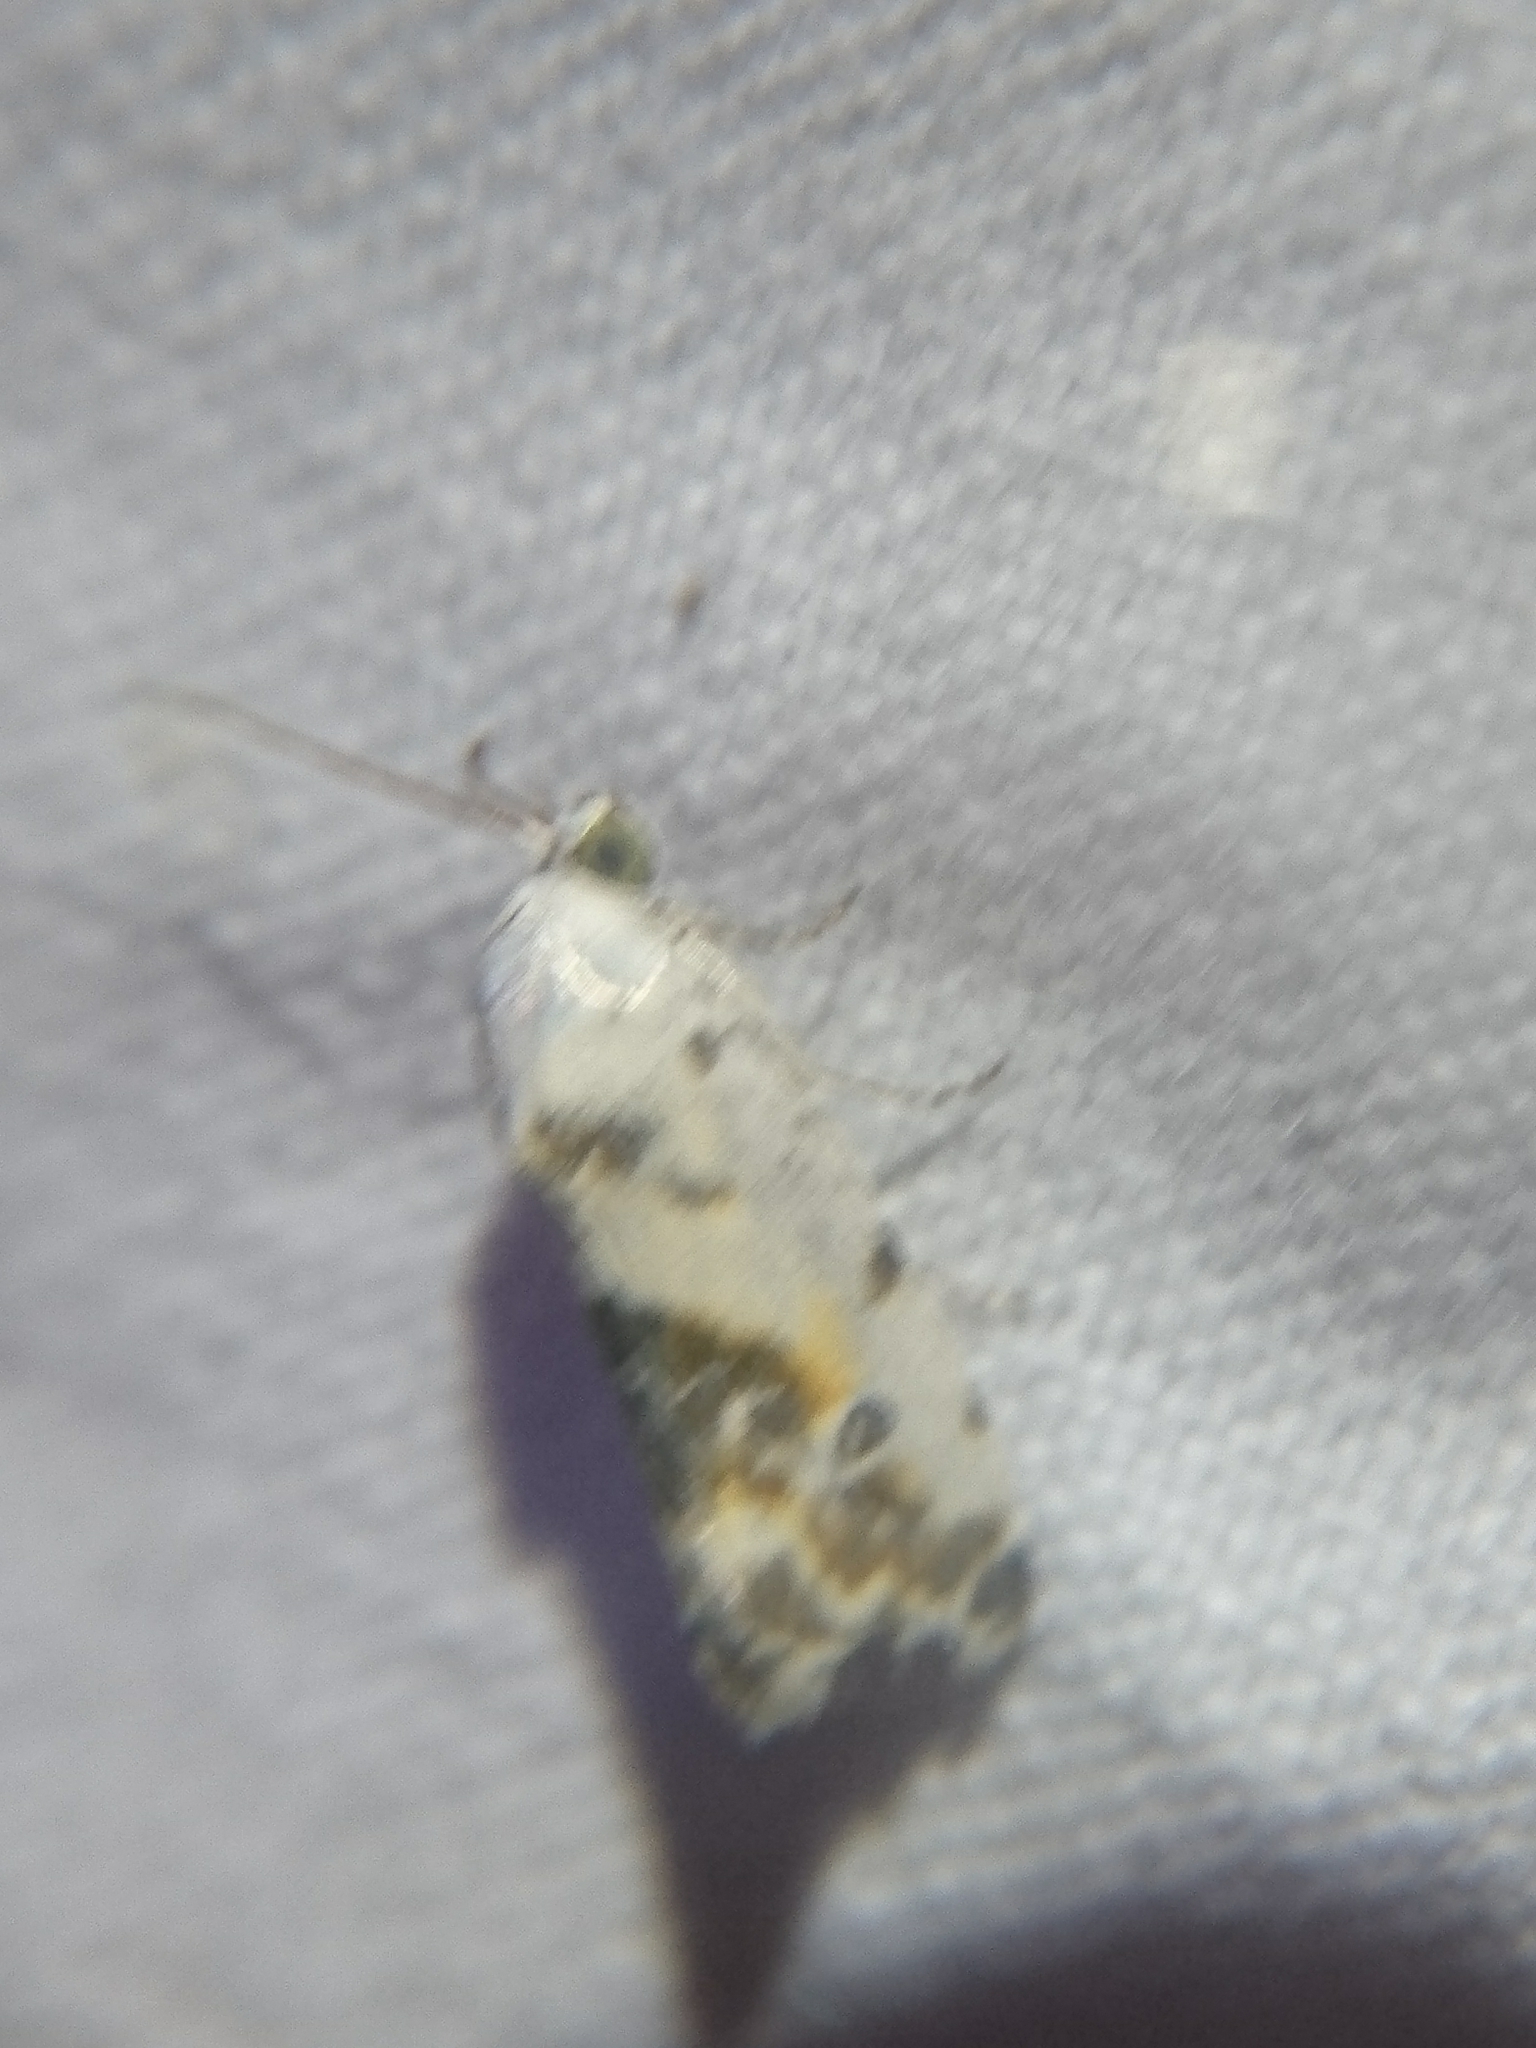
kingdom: Animalia
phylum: Arthropoda
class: Insecta
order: Lepidoptera
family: Noctuidae
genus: Acontia
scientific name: Acontia candefacta
